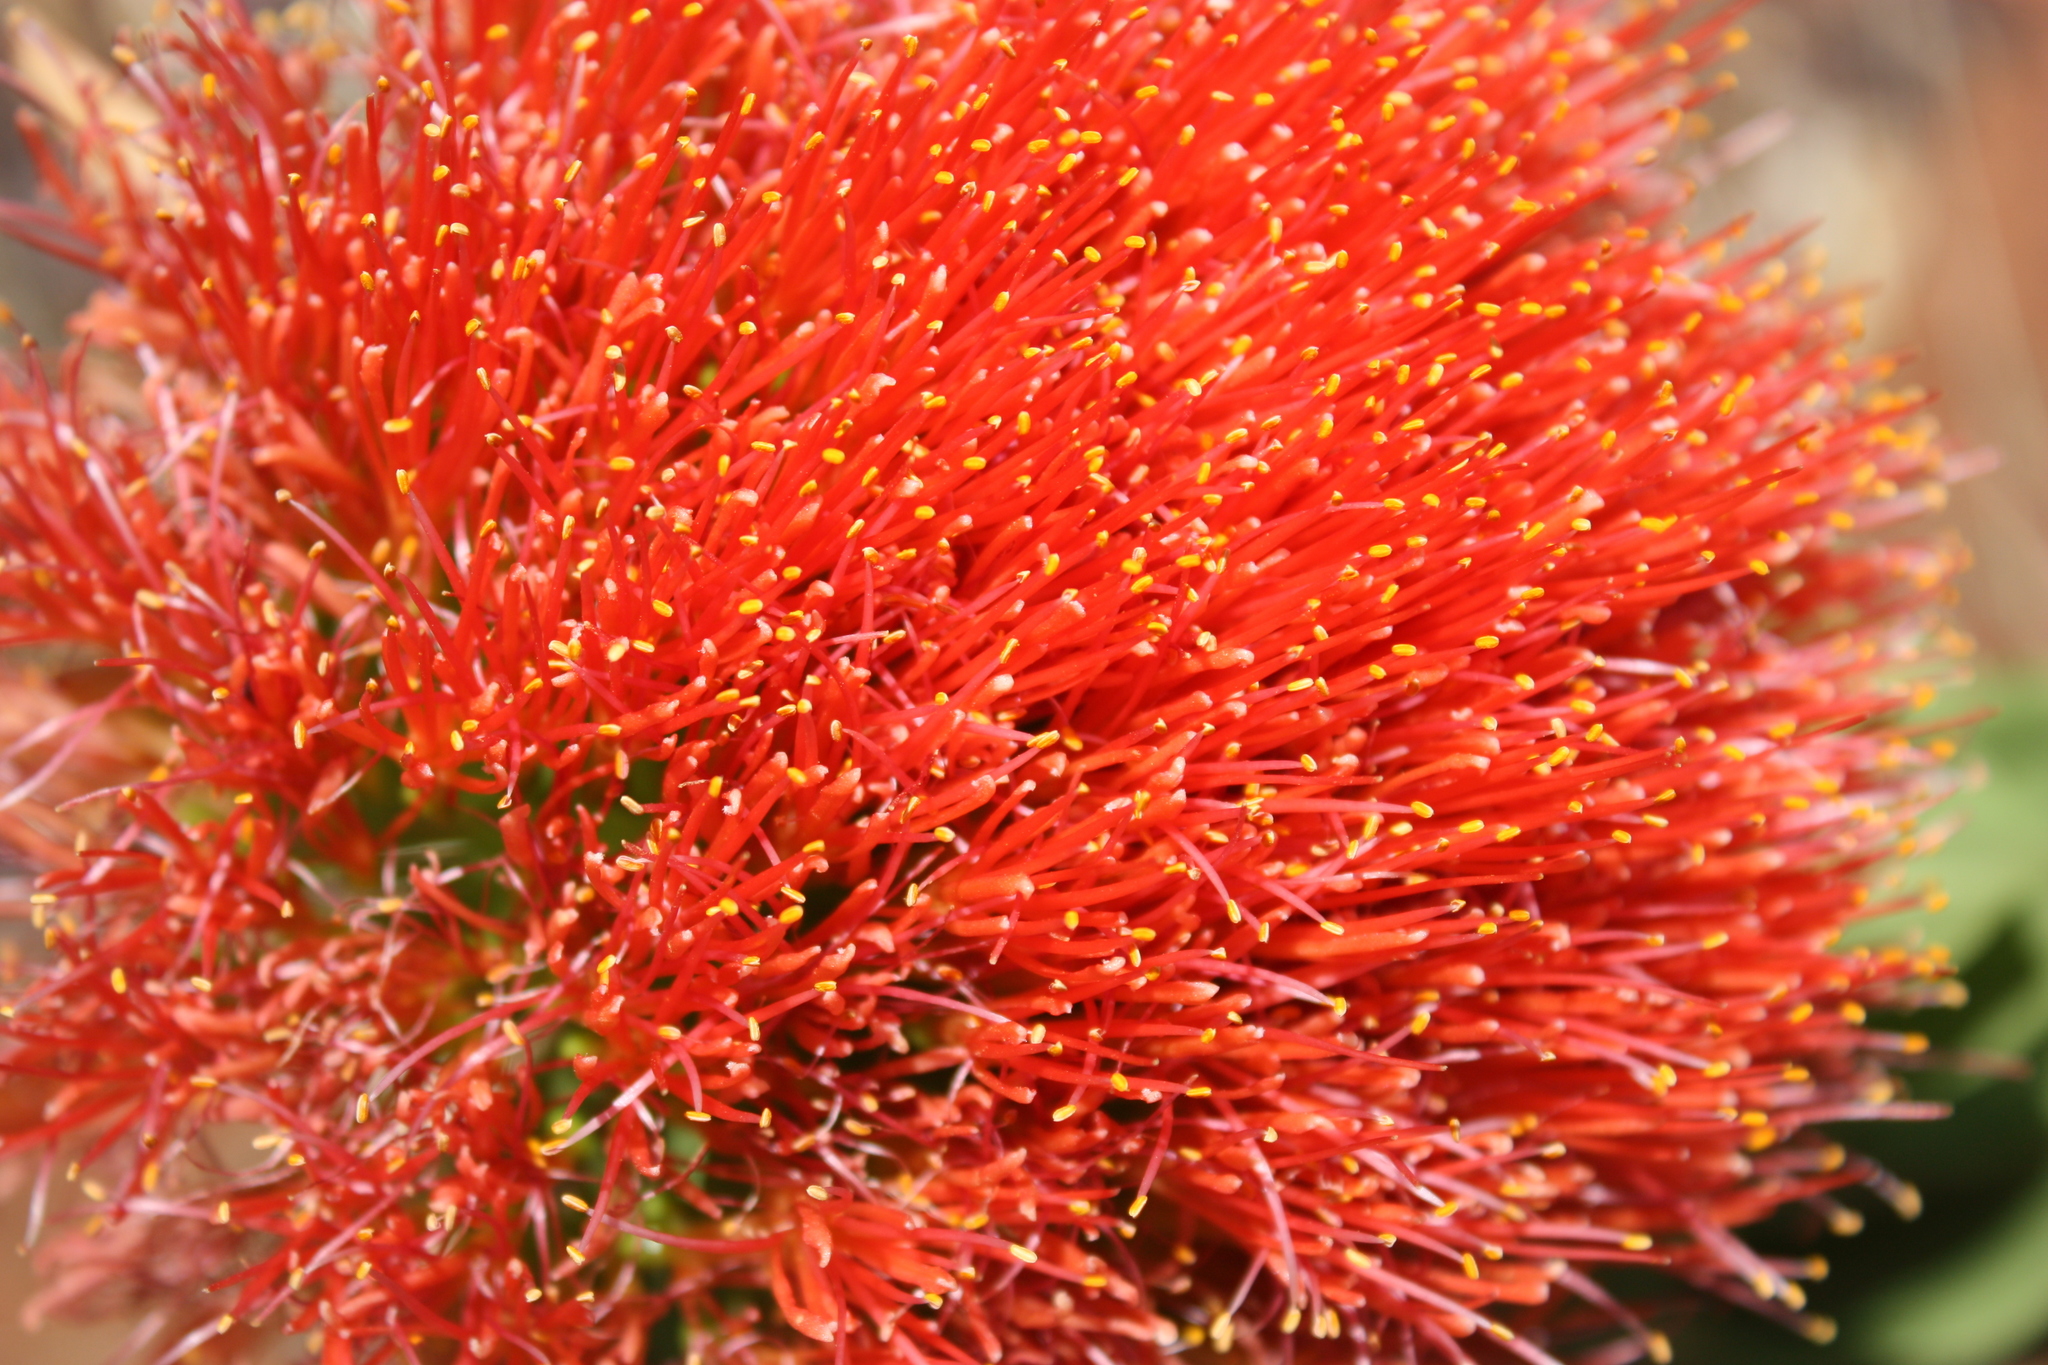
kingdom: Plantae
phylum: Tracheophyta
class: Liliopsida
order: Asparagales
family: Amaryllidaceae
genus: Scadoxus
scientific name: Scadoxus puniceus
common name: Royal-paintbrush
